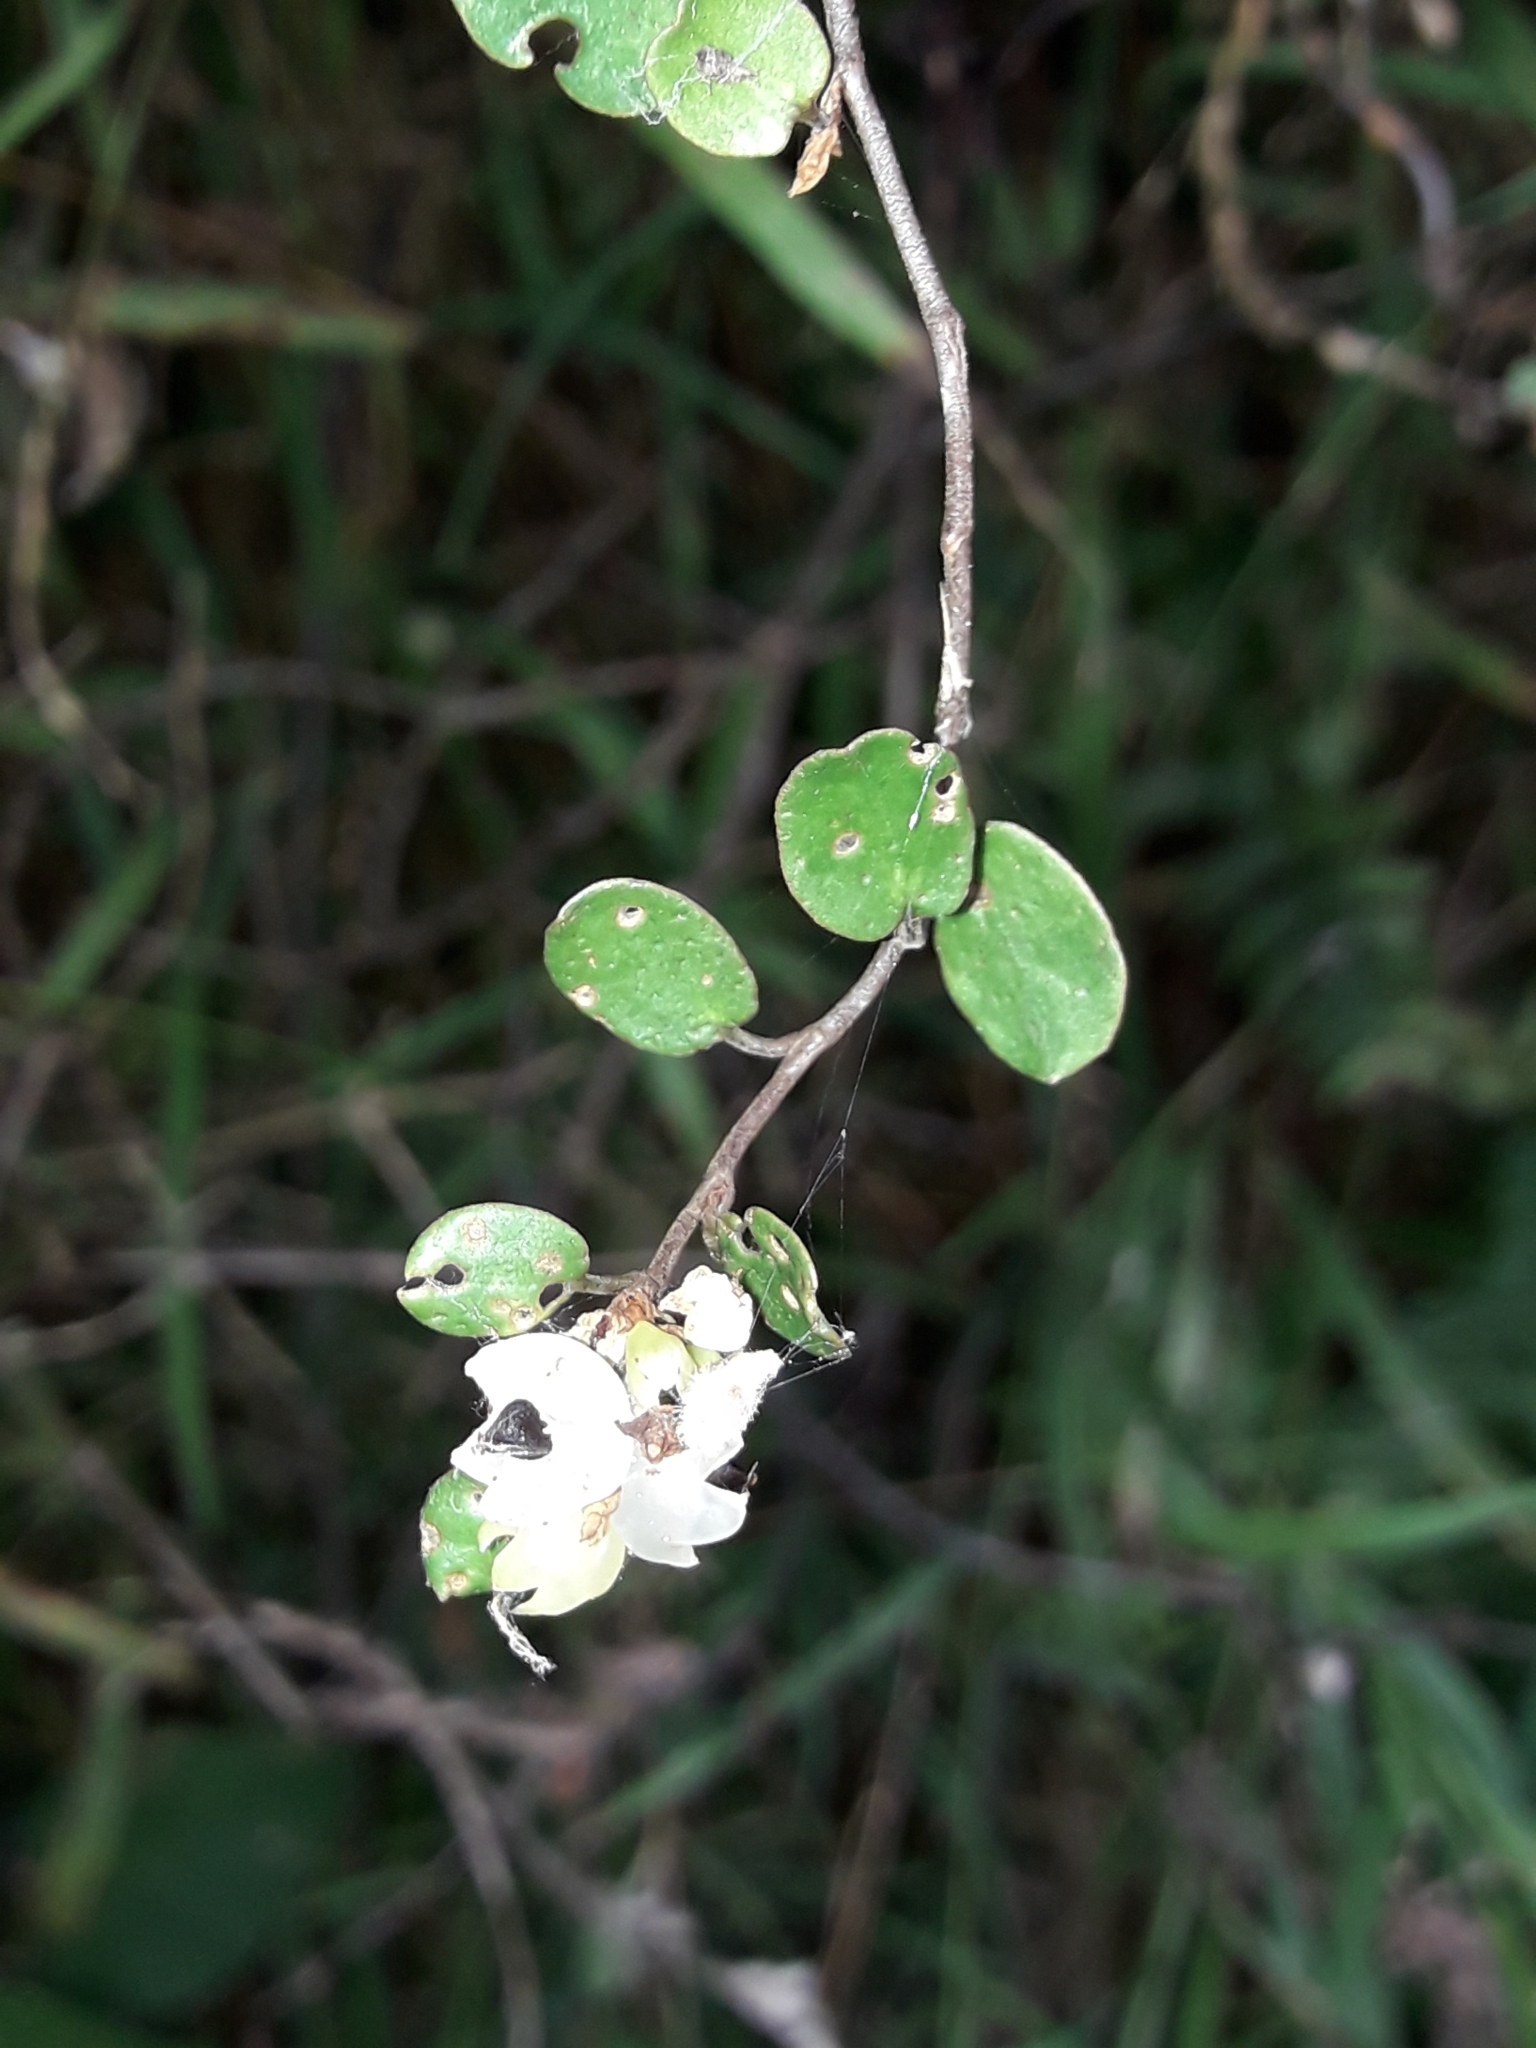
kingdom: Plantae
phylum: Tracheophyta
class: Magnoliopsida
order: Caryophyllales
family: Polygonaceae
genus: Muehlenbeckia
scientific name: Muehlenbeckia complexa
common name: Wireplant
